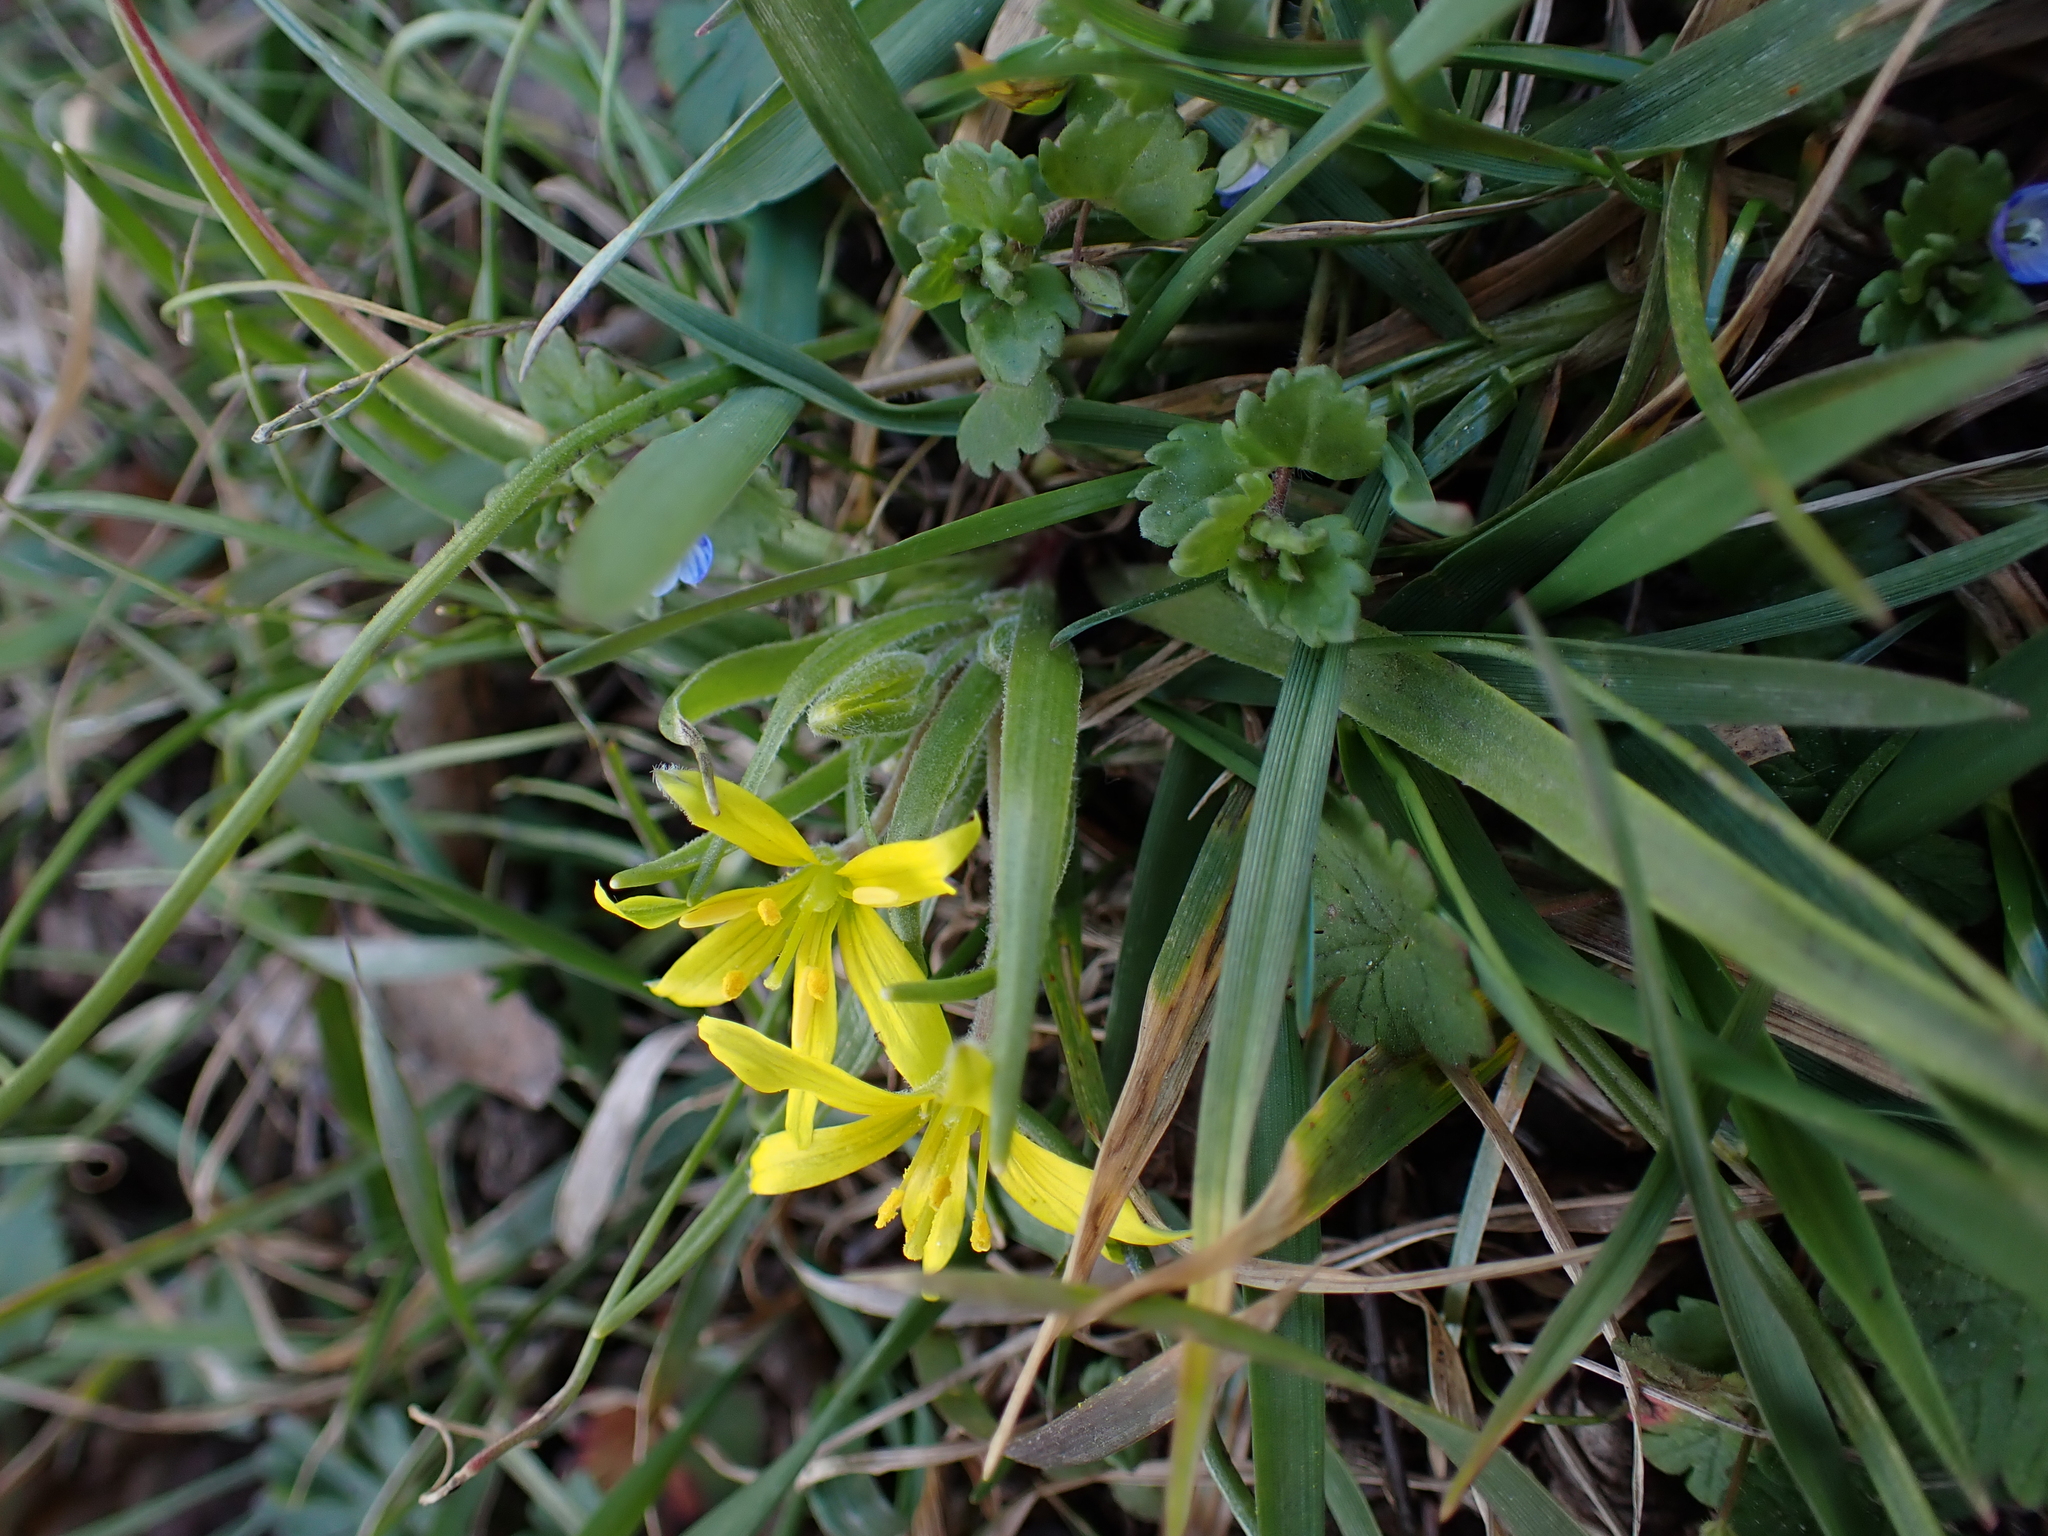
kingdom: Plantae
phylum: Tracheophyta
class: Liliopsida
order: Liliales
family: Liliaceae
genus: Gagea
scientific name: Gagea villosa
